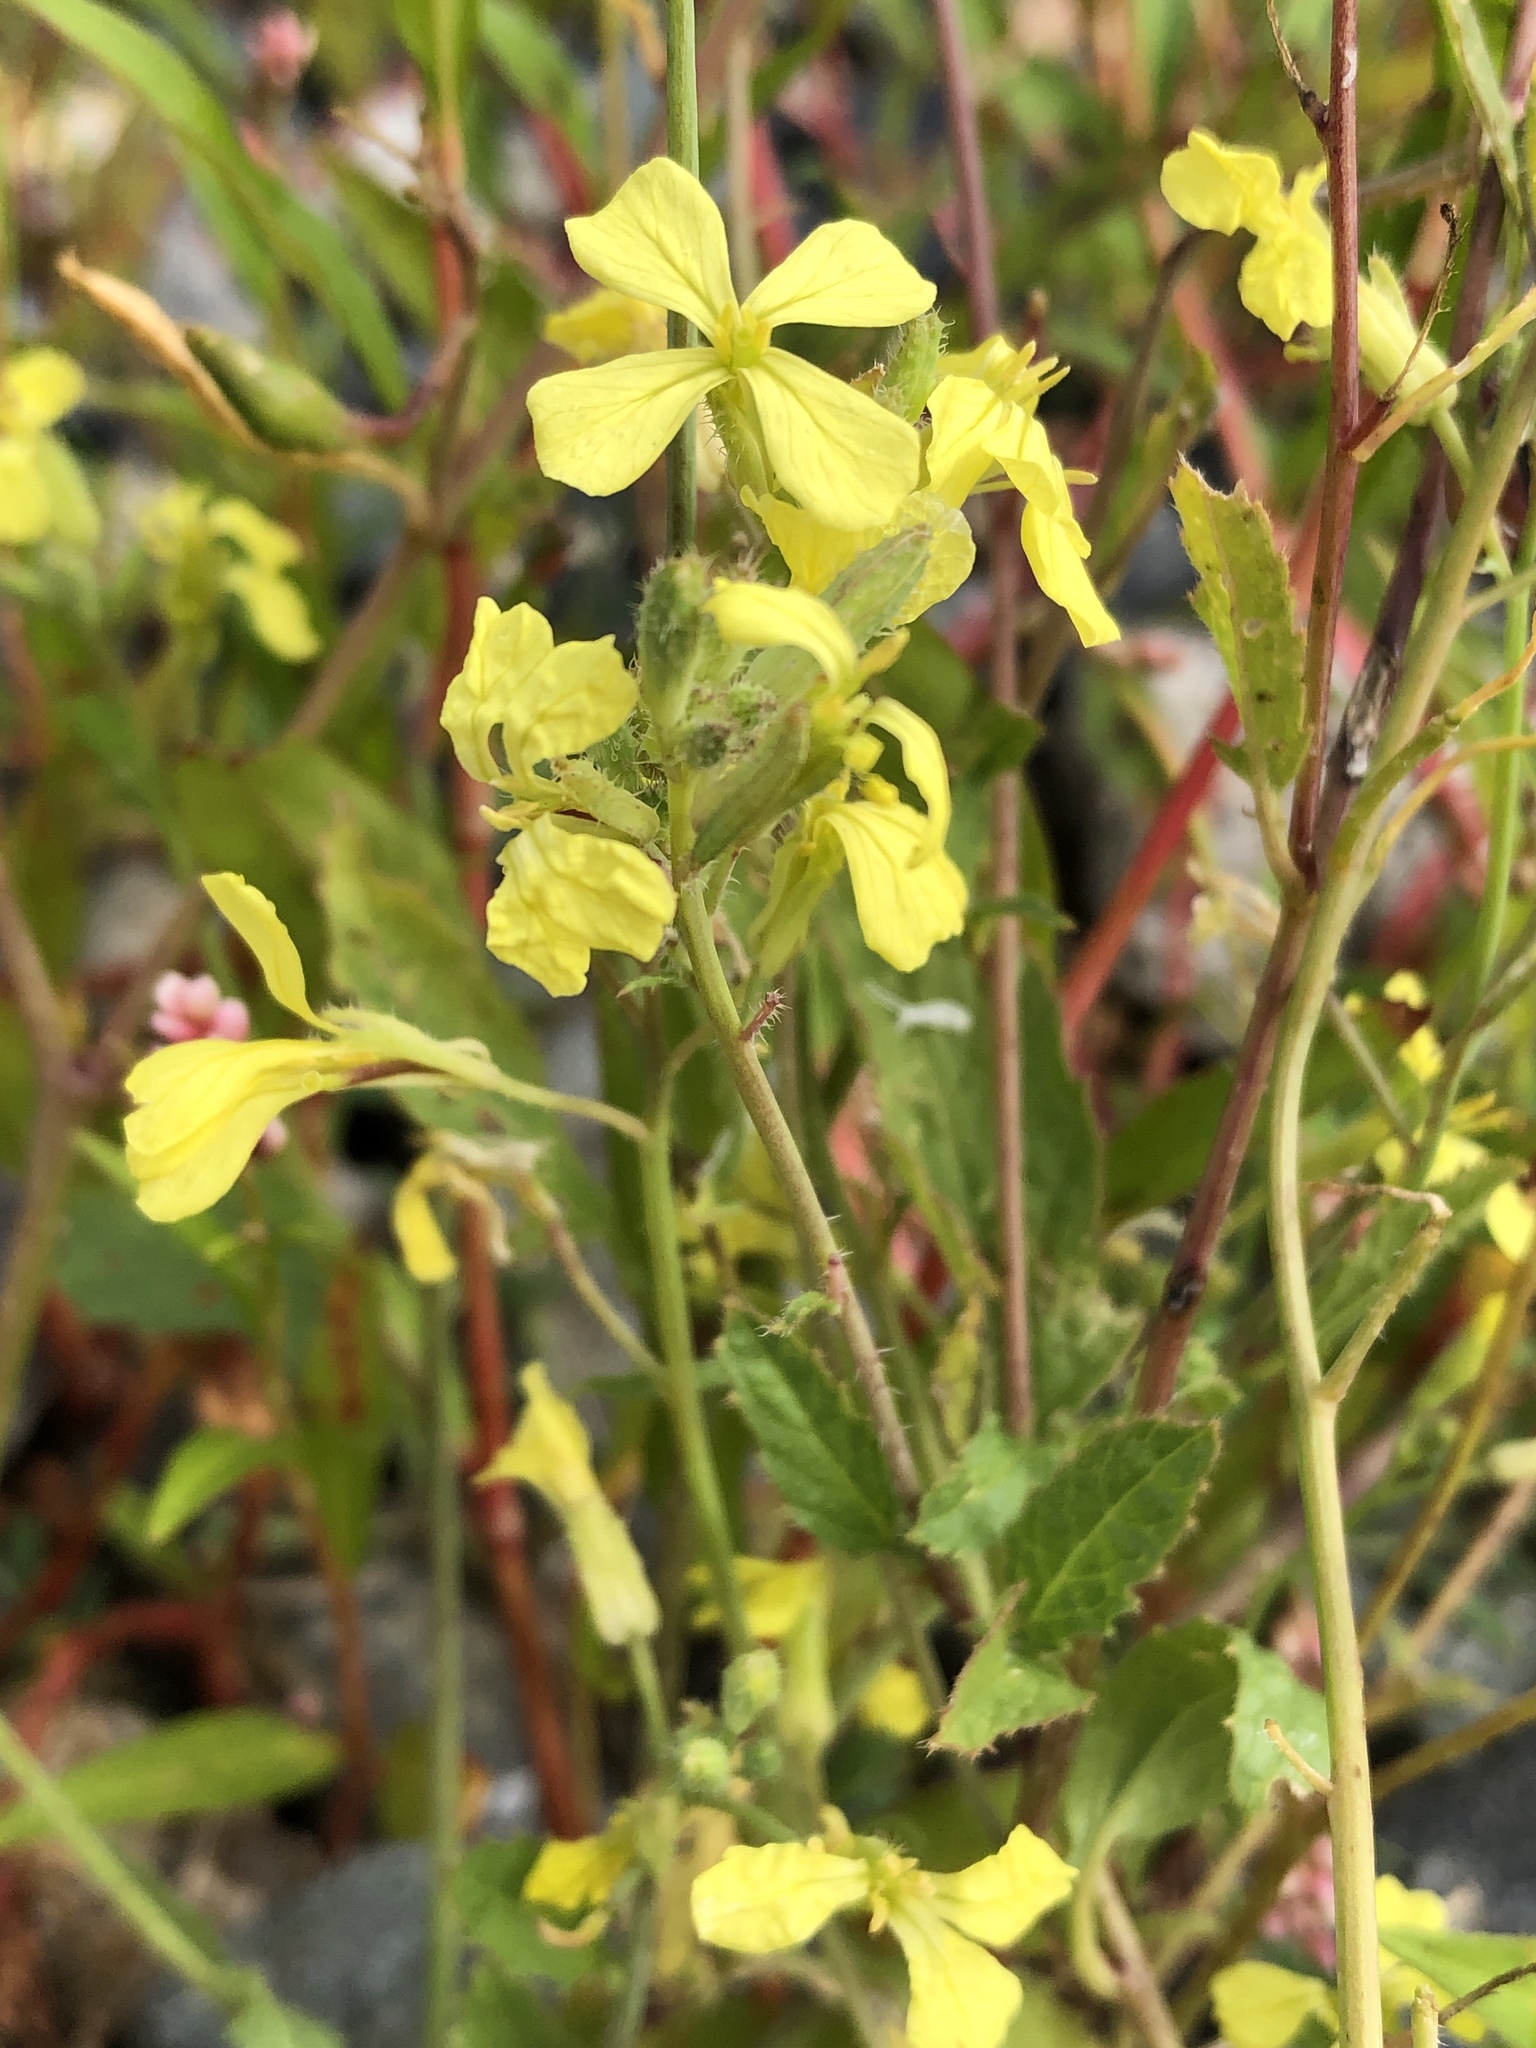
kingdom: Plantae
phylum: Tracheophyta
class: Magnoliopsida
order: Brassicales
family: Brassicaceae
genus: Raphanus
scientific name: Raphanus raphanistrum
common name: Wild radish
